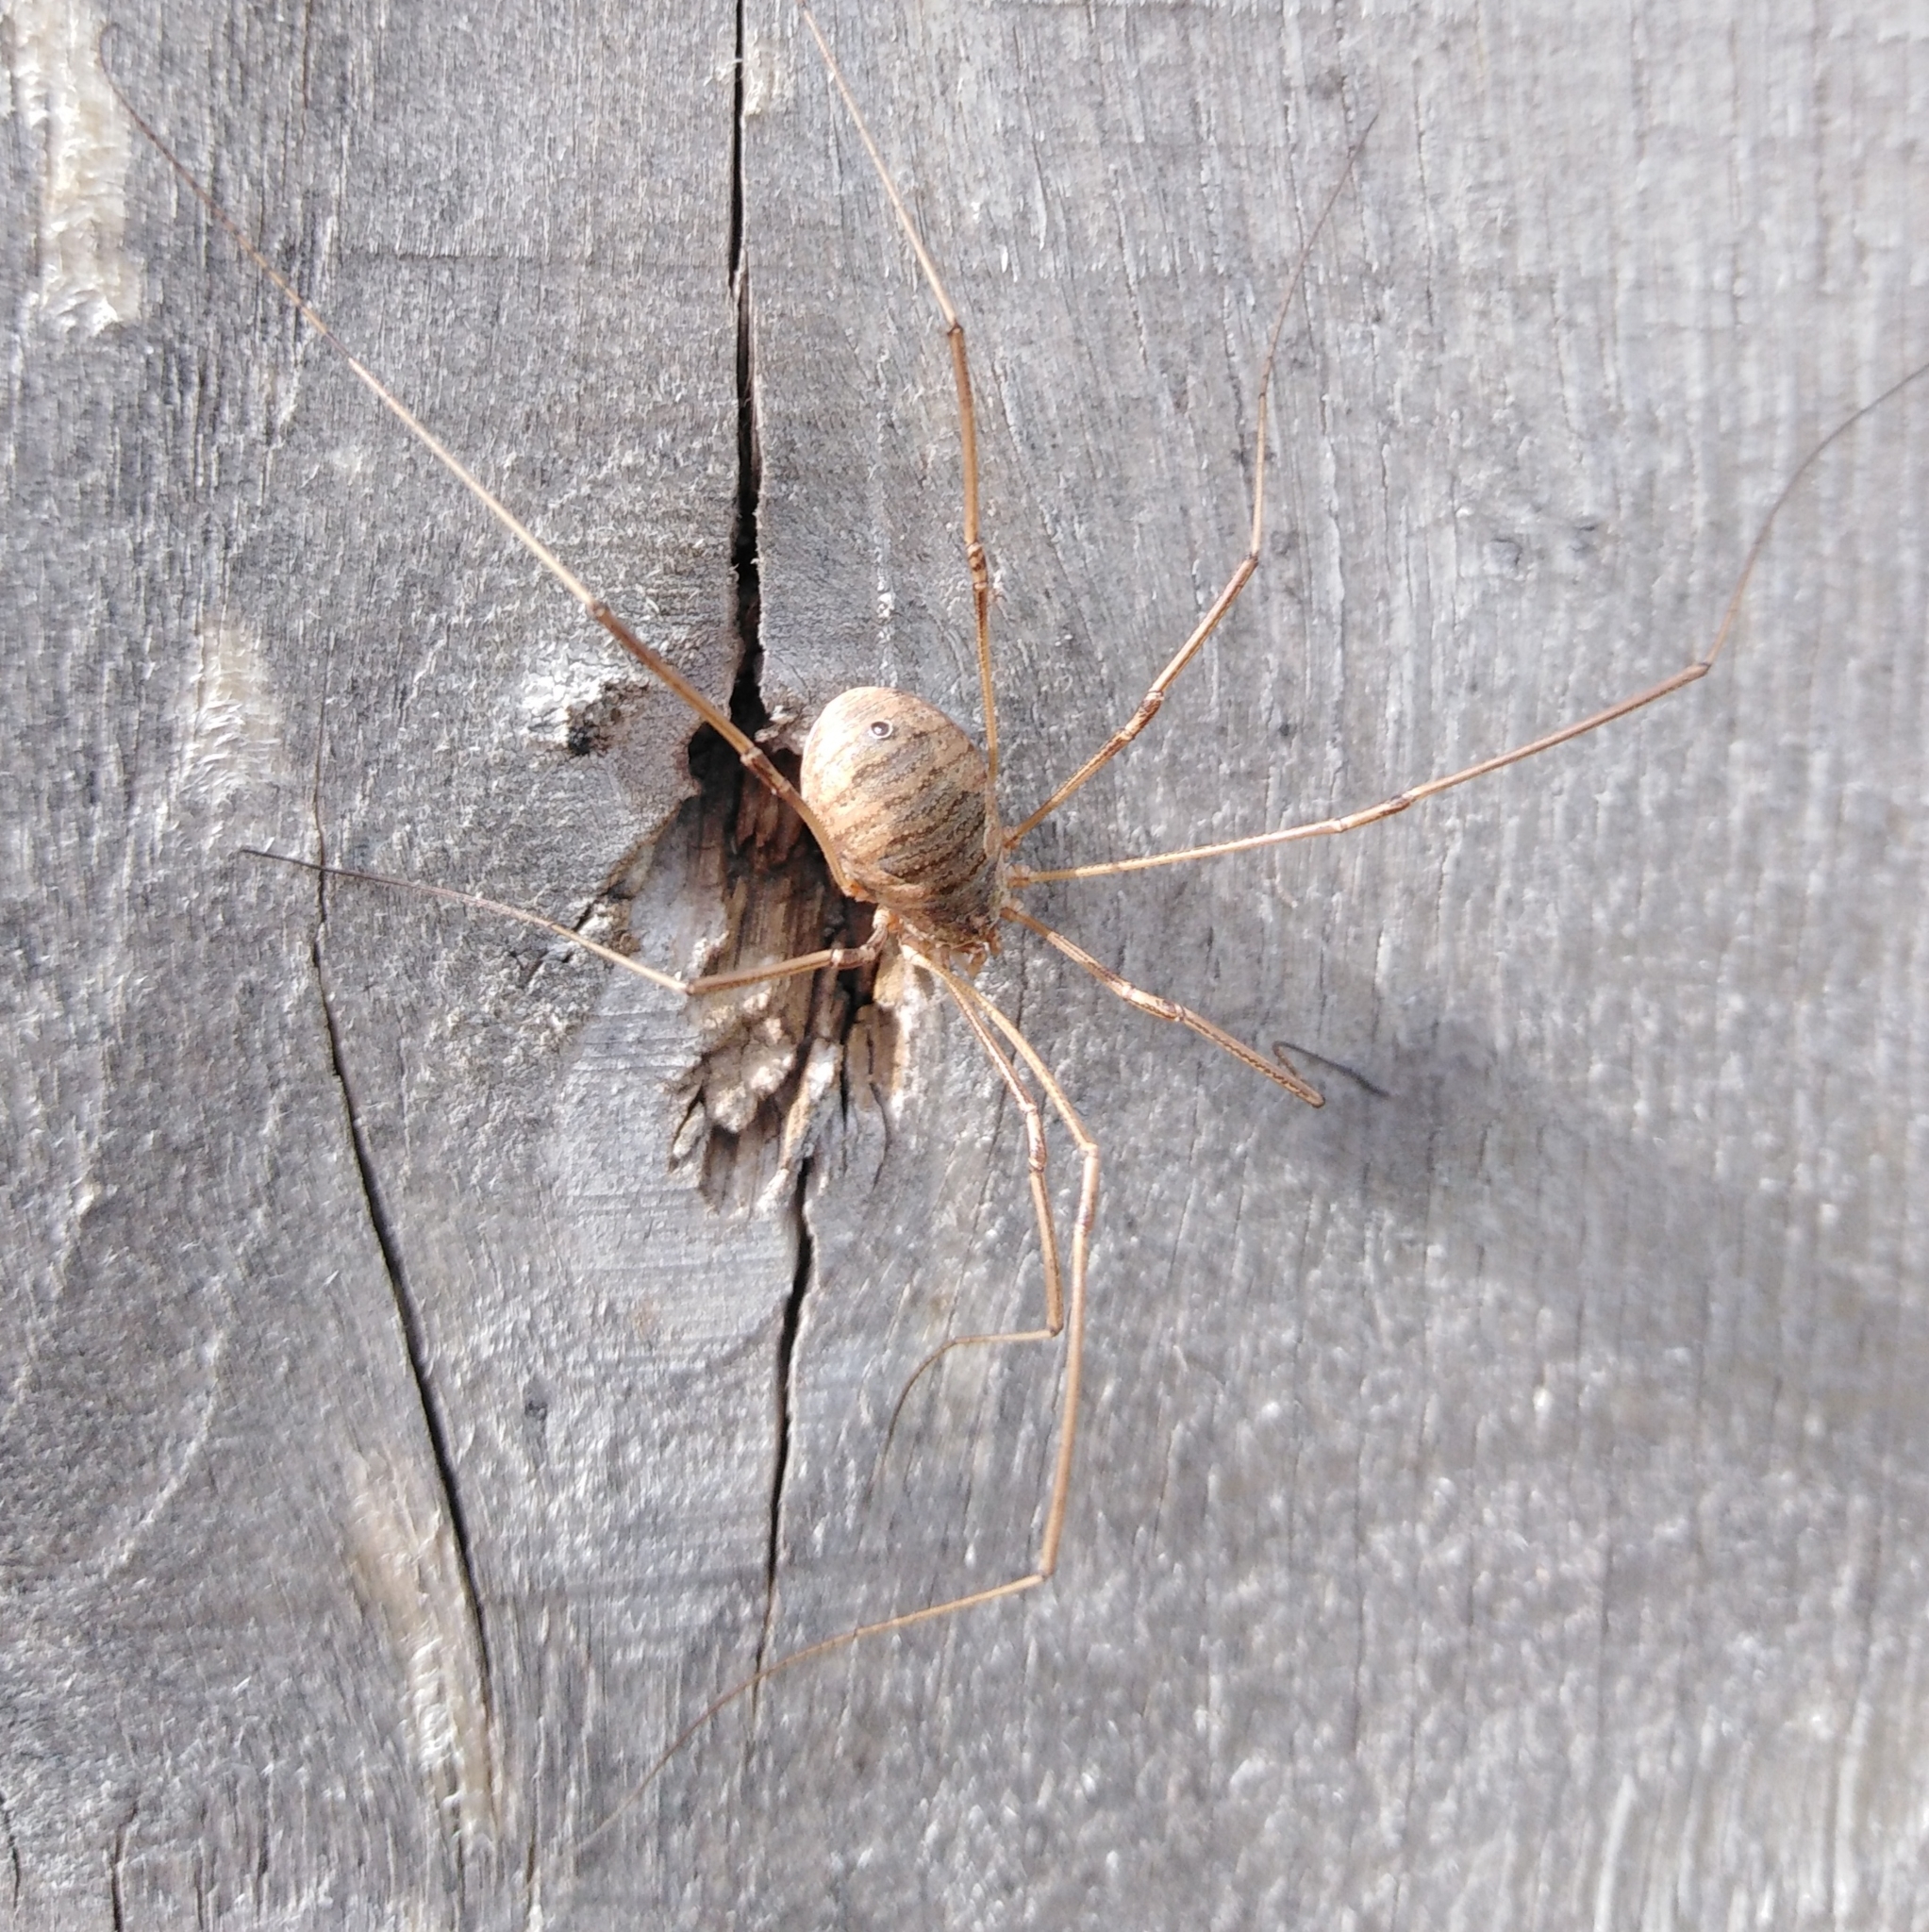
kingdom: Animalia
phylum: Arthropoda
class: Arachnida
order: Opiliones
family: Phalangiidae
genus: Phalangium
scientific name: Phalangium opilio
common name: Daddy longleg
